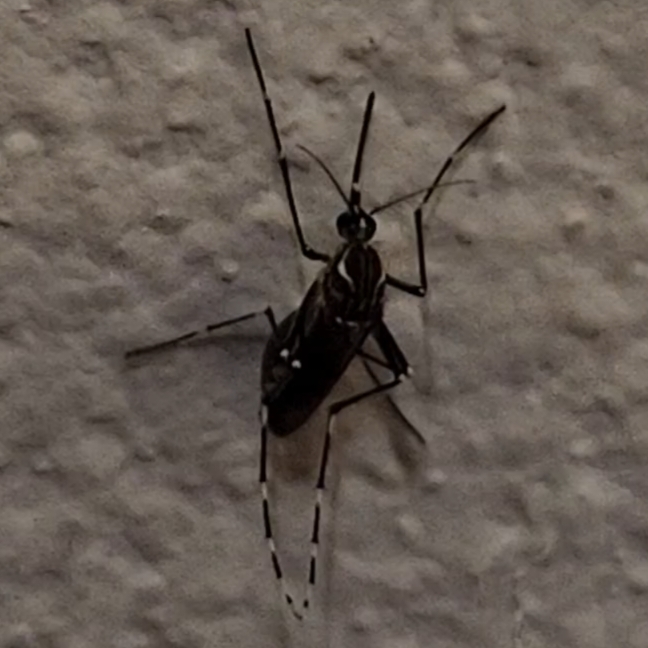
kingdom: Animalia
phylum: Arthropoda
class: Insecta
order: Diptera
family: Culicidae
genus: Aedes
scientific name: Aedes aegypti
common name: Yellow fever mosquito
